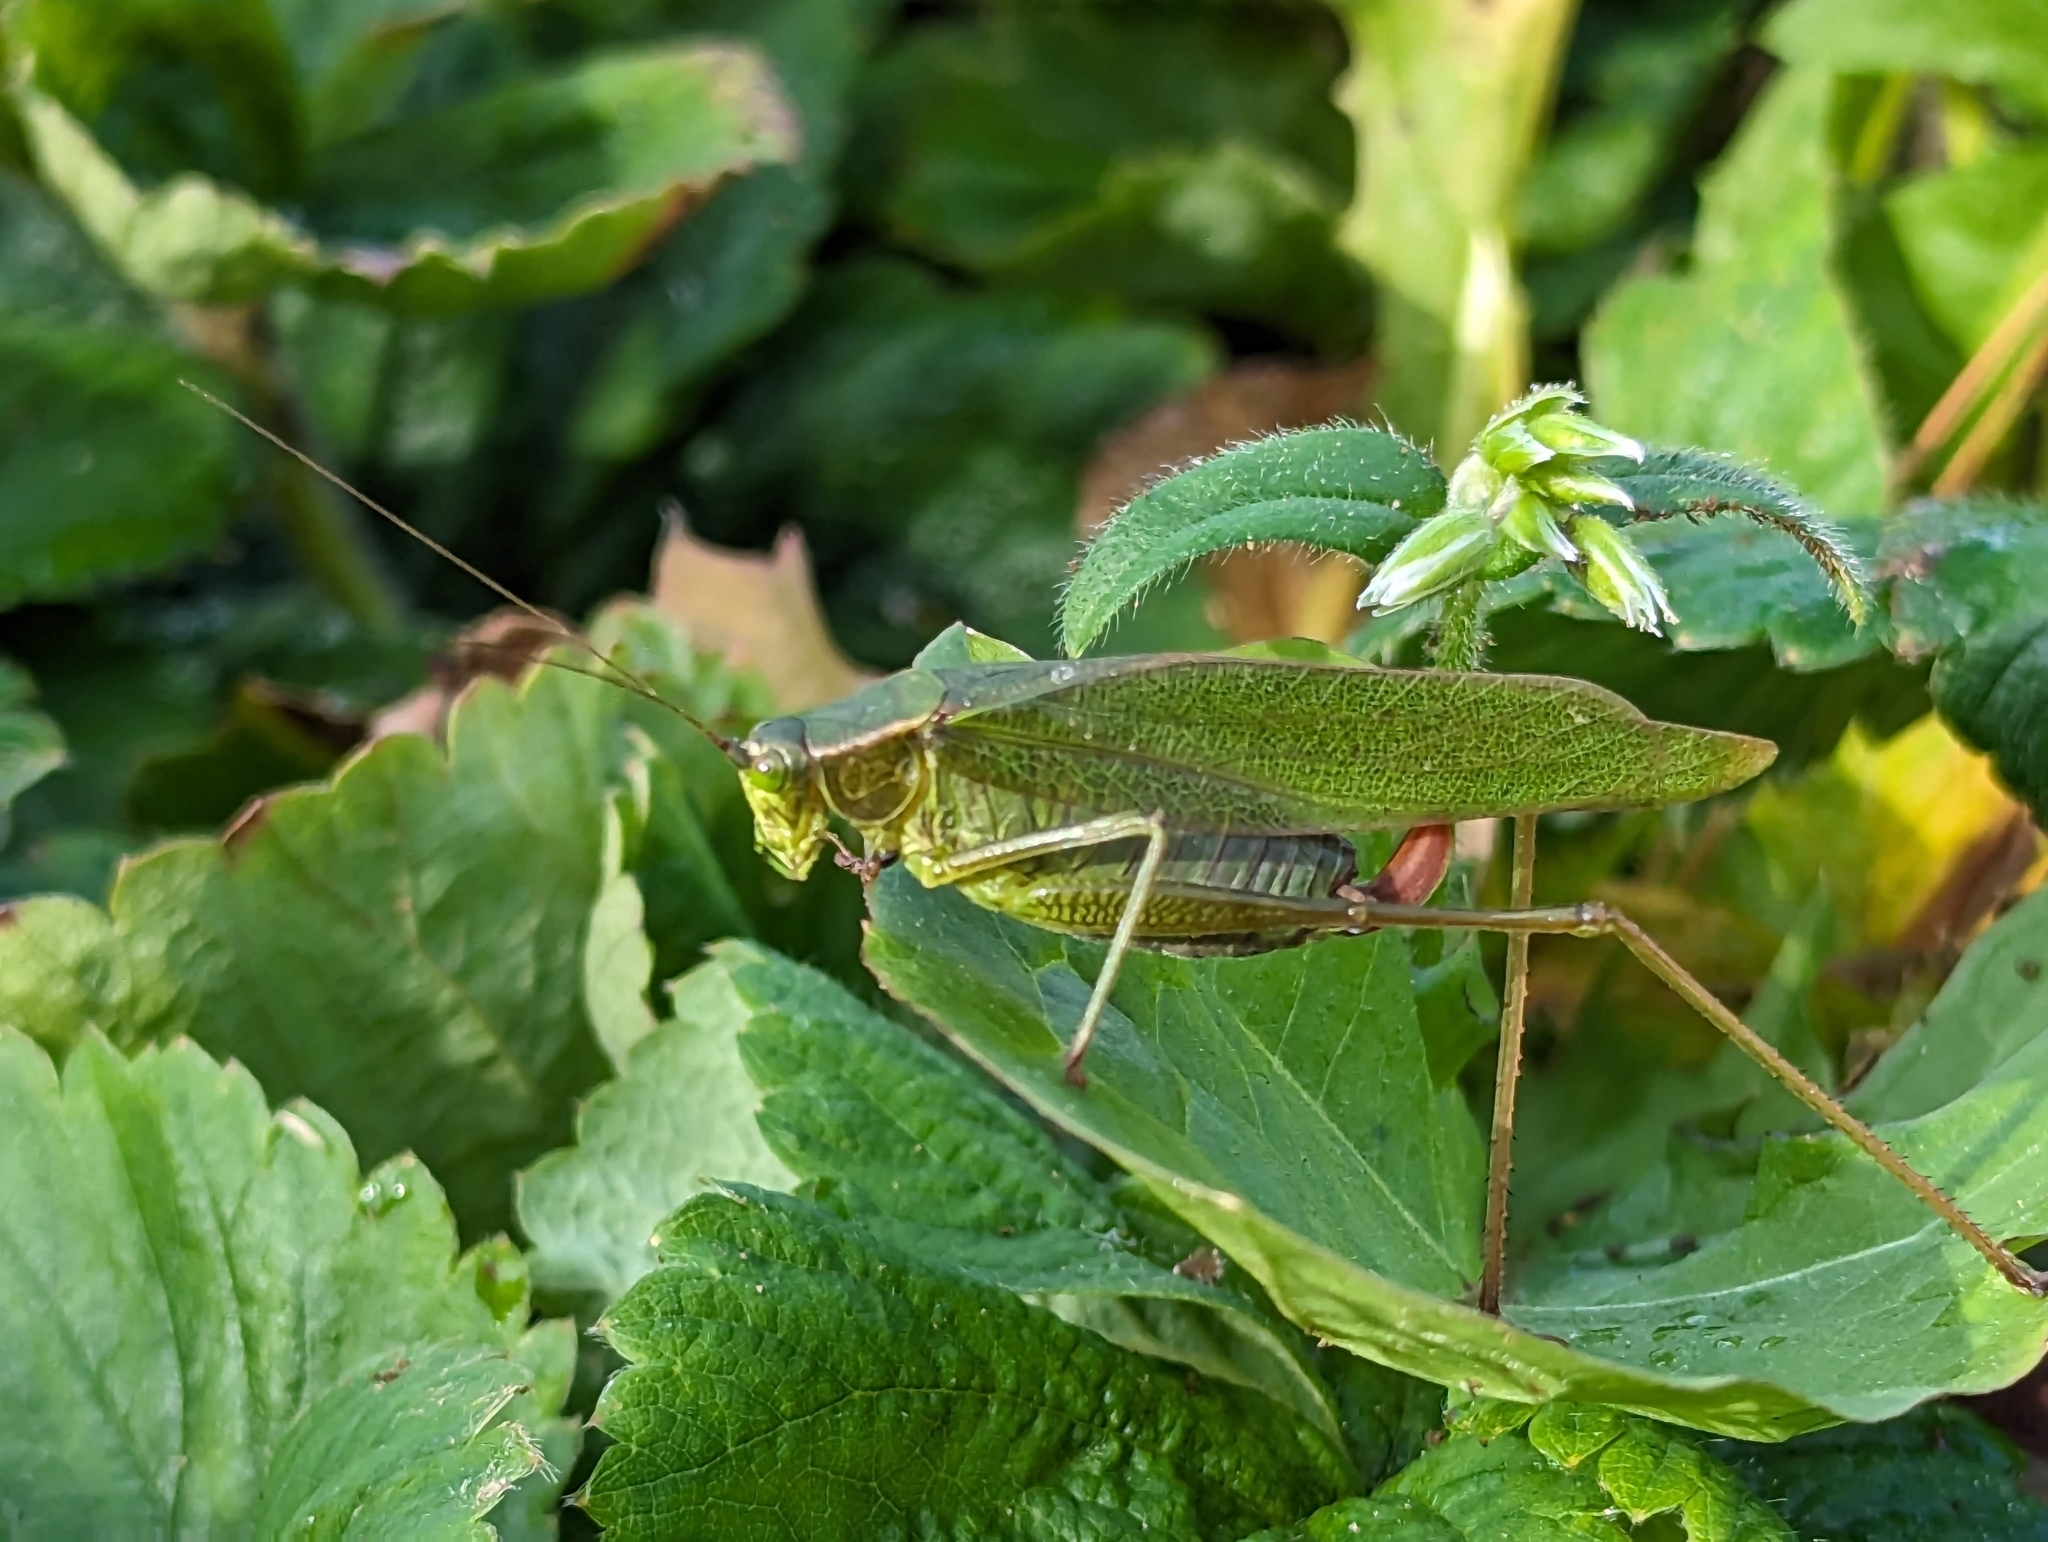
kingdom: Animalia
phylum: Arthropoda
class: Insecta
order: Orthoptera
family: Tettigoniidae
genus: Scudderia
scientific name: Scudderia furcata
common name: Fork-tailed bush katydid
